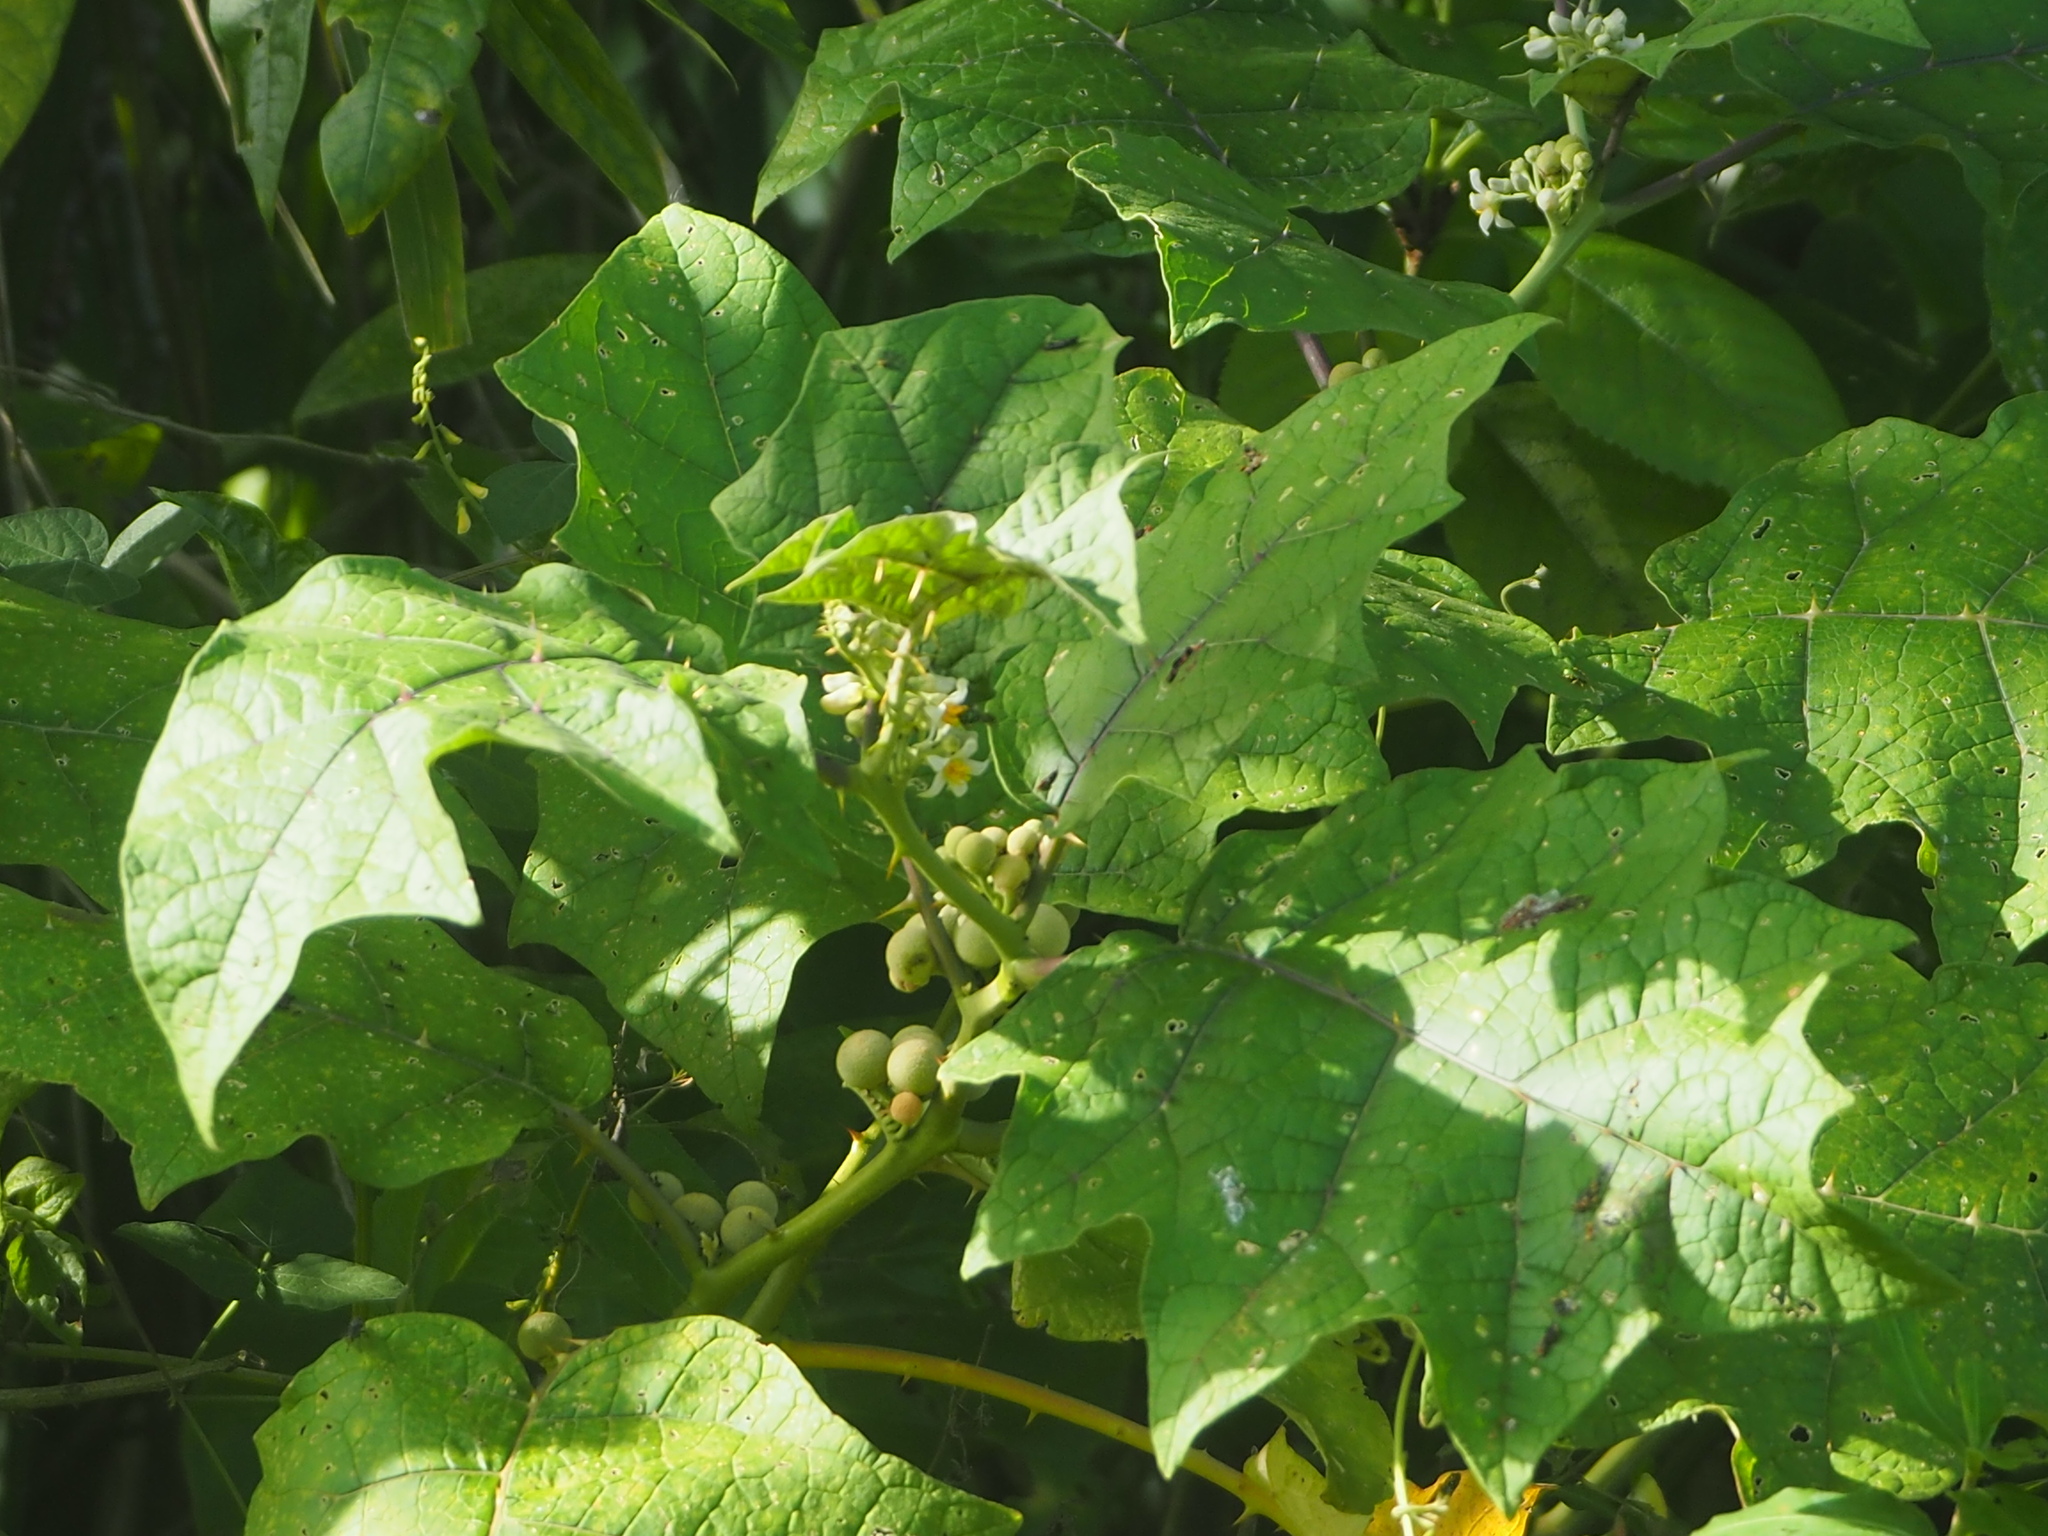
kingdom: Plantae
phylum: Tracheophyta
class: Magnoliopsida
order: Solanales
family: Solanaceae
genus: Solanum
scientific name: Solanum
